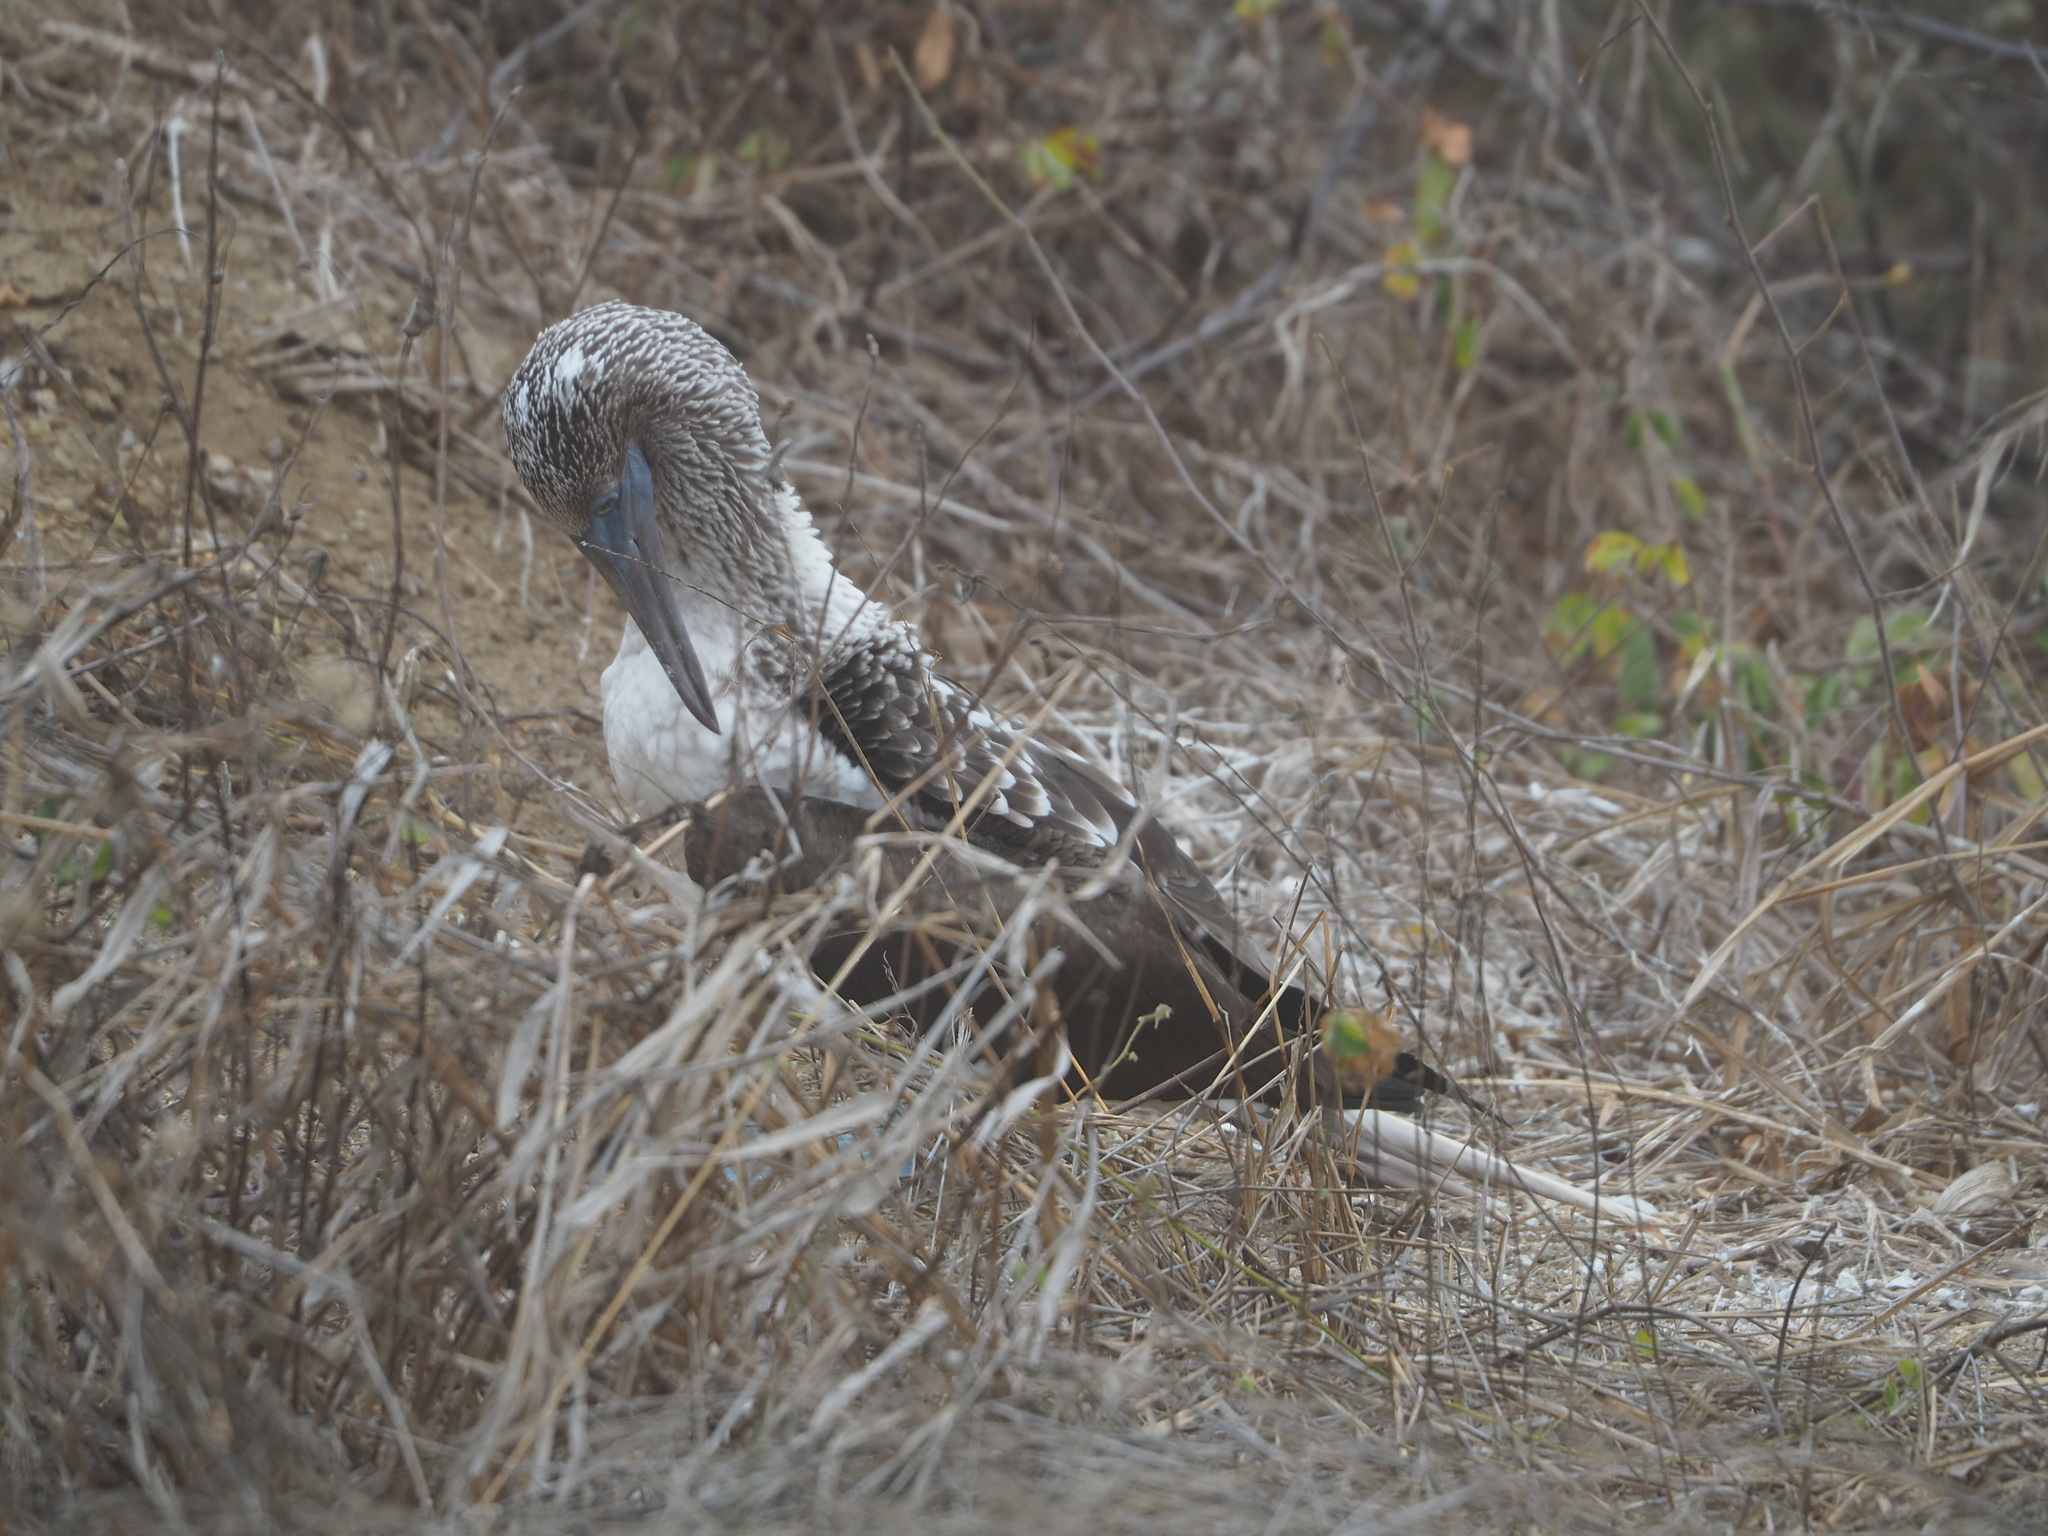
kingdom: Animalia
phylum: Chordata
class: Aves
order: Suliformes
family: Sulidae
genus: Sula
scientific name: Sula nebouxii
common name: Blue-footed booby
